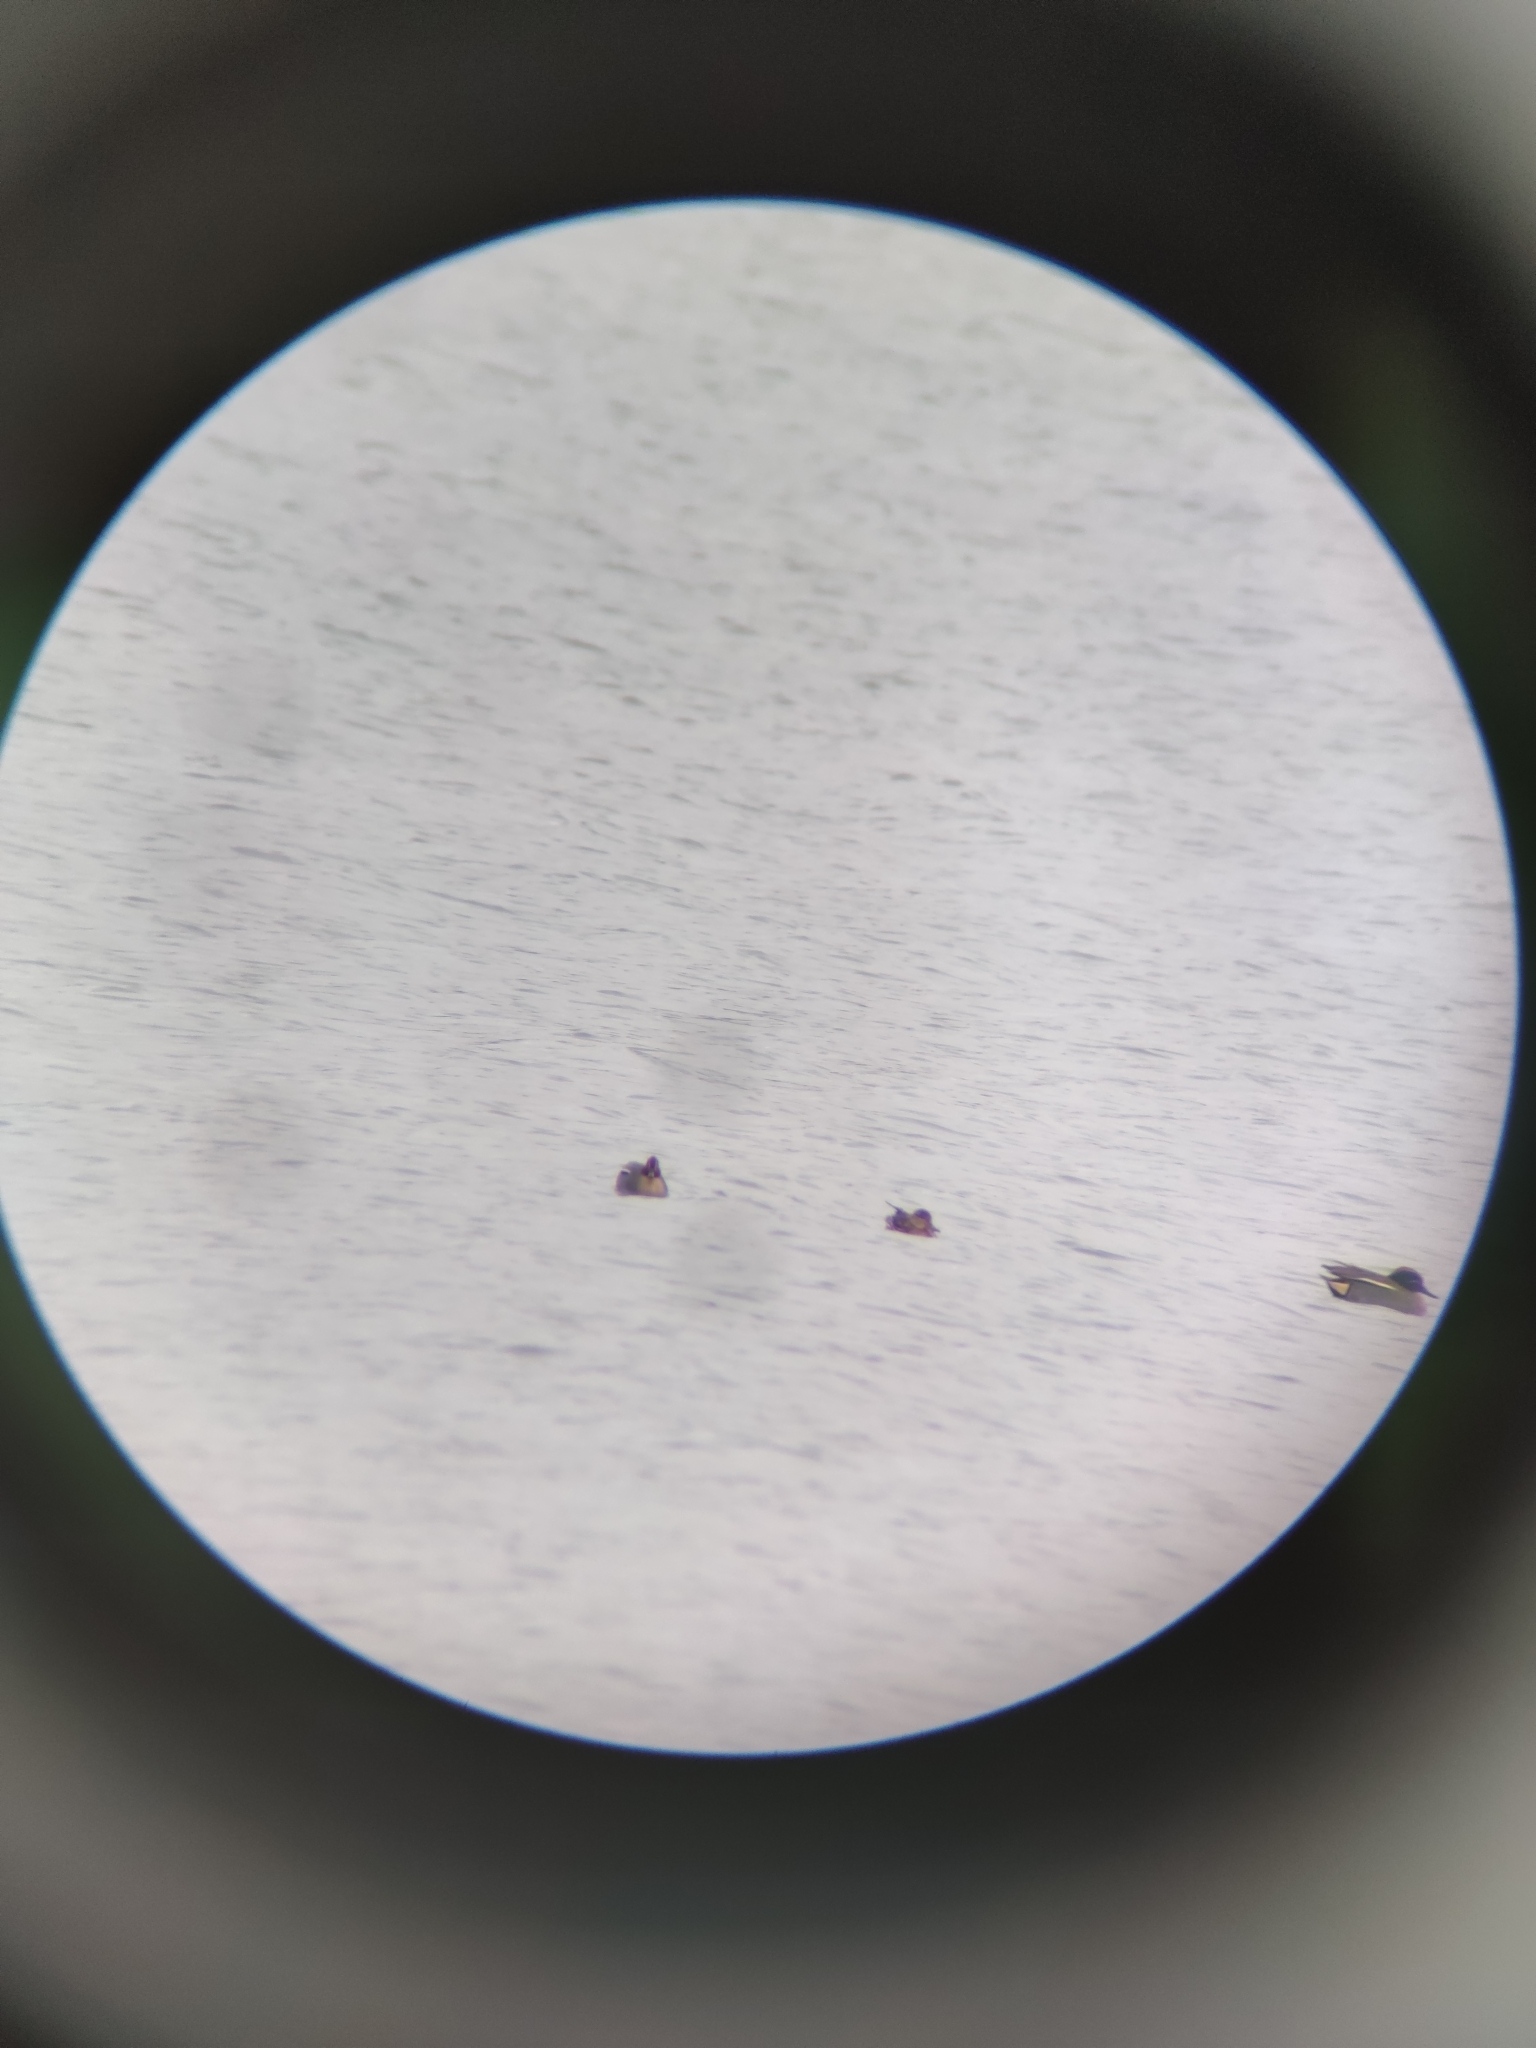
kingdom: Animalia
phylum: Chordata
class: Aves
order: Anseriformes
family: Anatidae
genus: Anas
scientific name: Anas crecca
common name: Eurasian teal
